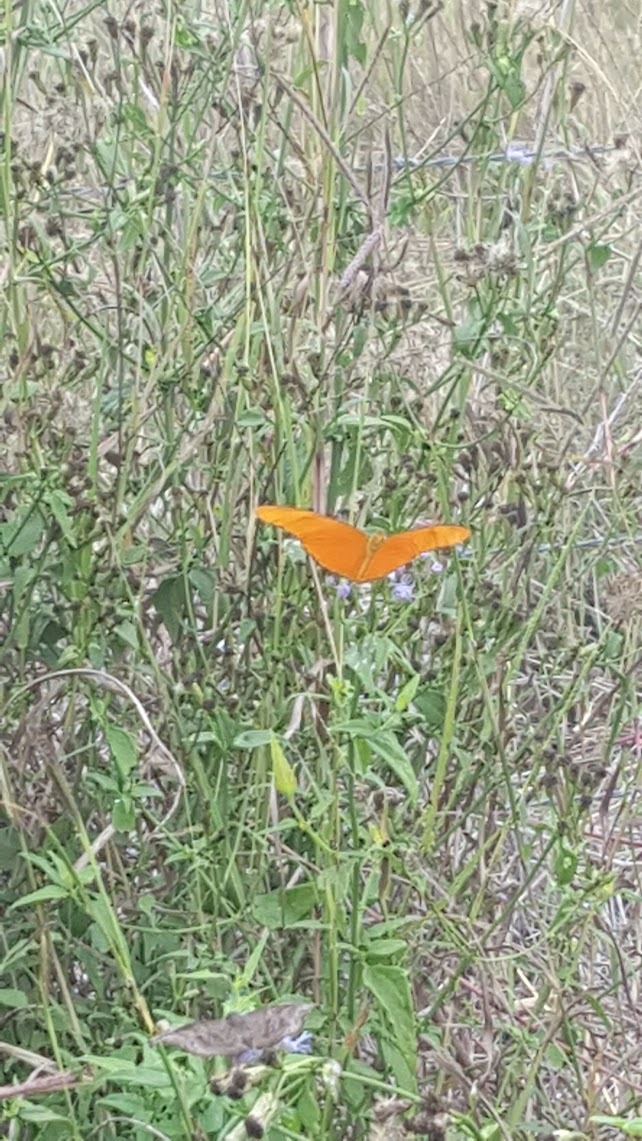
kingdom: Animalia
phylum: Arthropoda
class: Insecta
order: Lepidoptera
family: Nymphalidae
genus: Dryas
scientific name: Dryas iulia
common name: Flambeau
